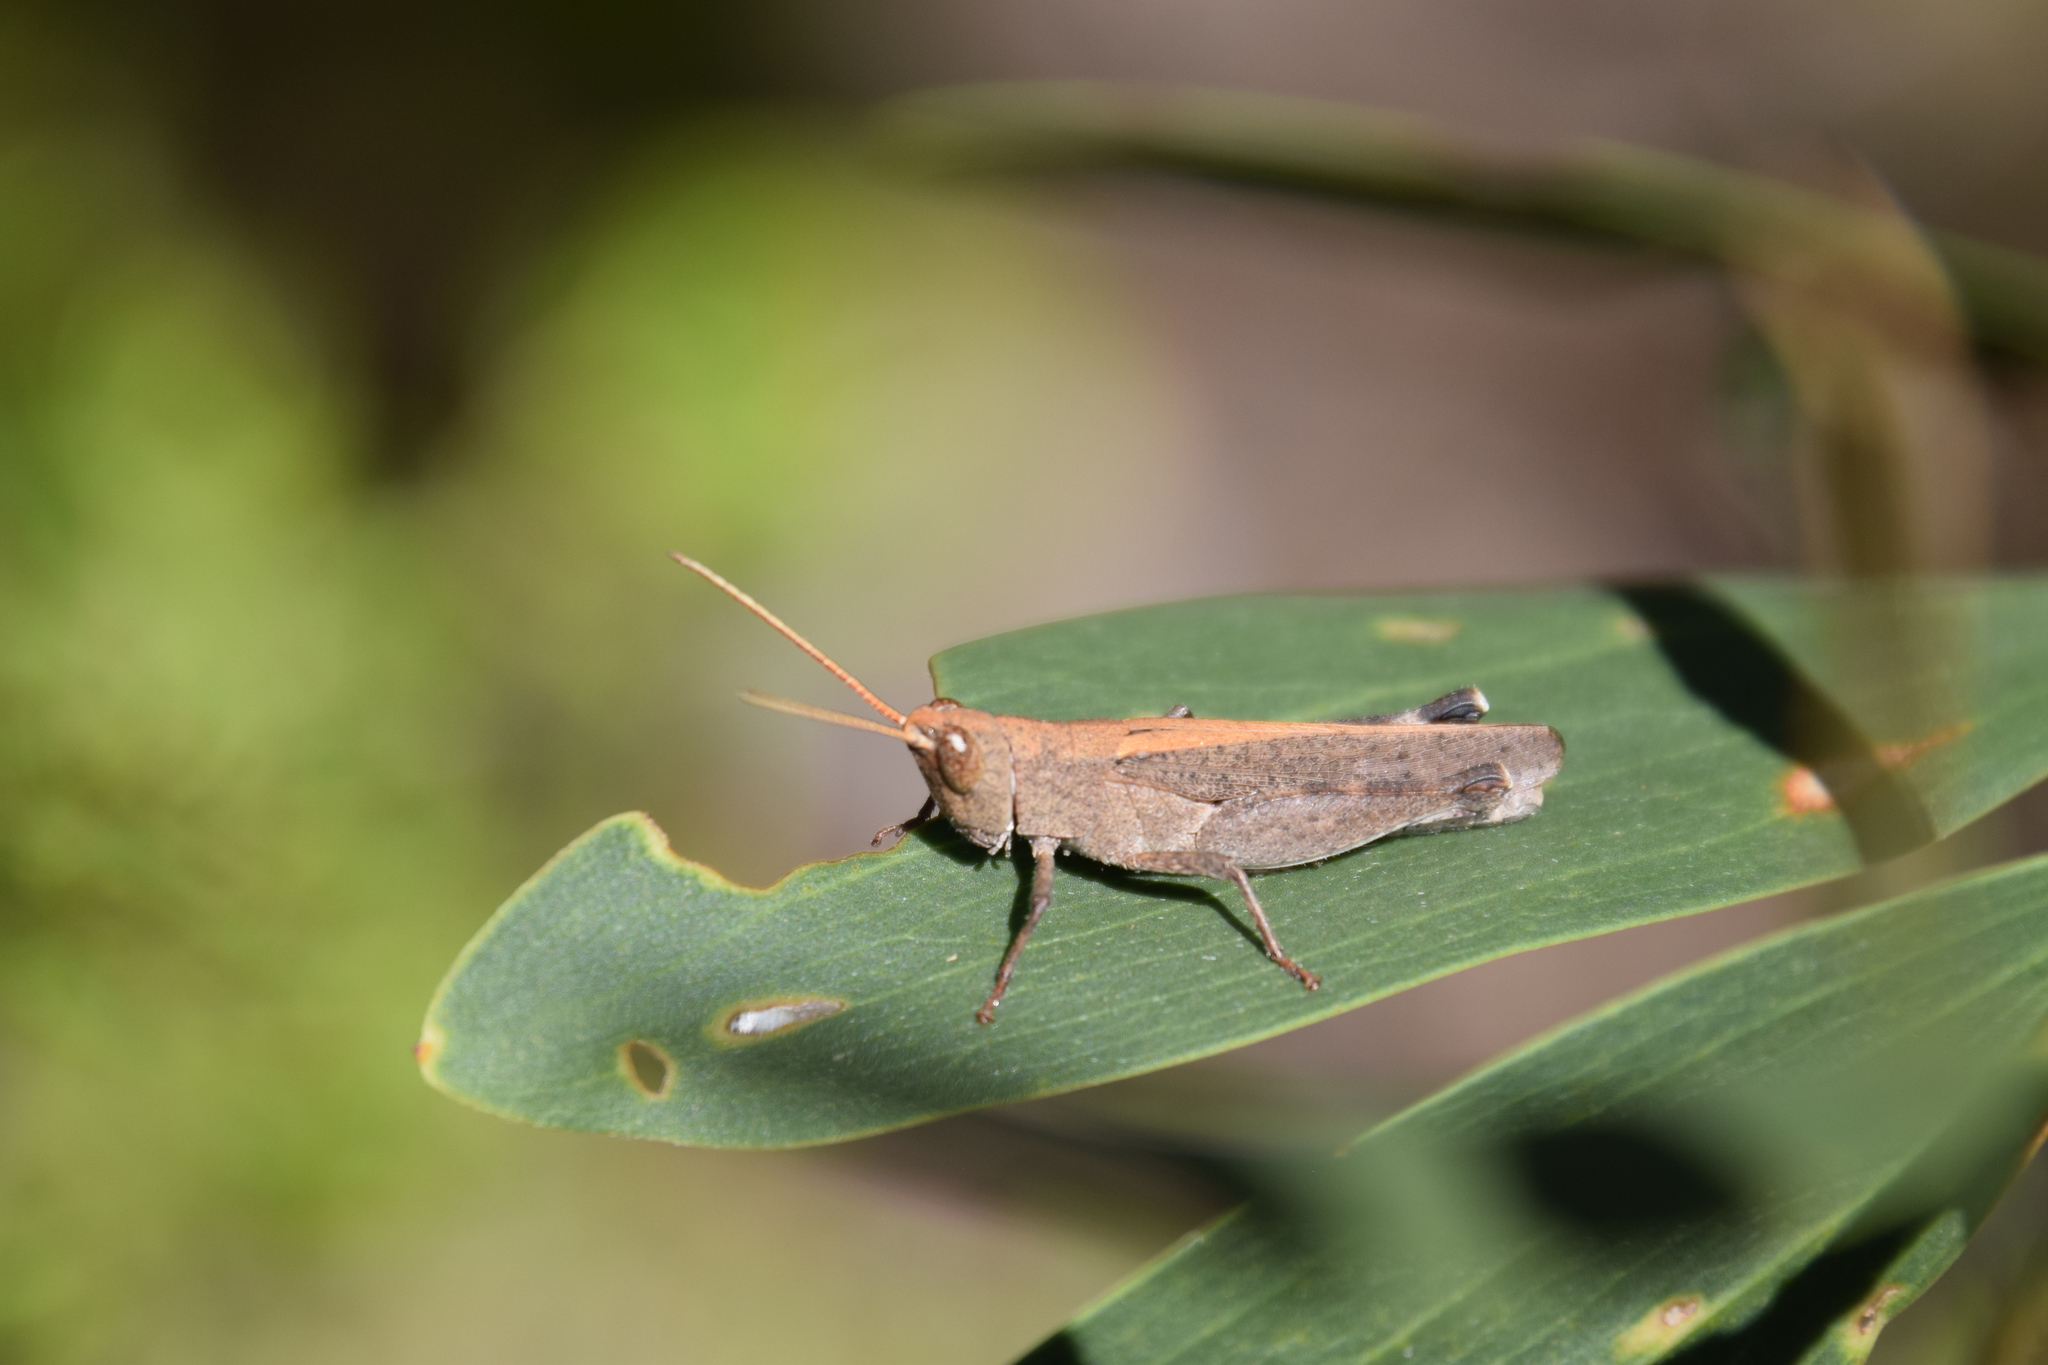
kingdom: Animalia
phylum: Arthropoda
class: Insecta
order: Orthoptera
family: Acrididae
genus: Goniaea
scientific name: Goniaea opomaloides
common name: Mimetic gumleaf grasshopper
